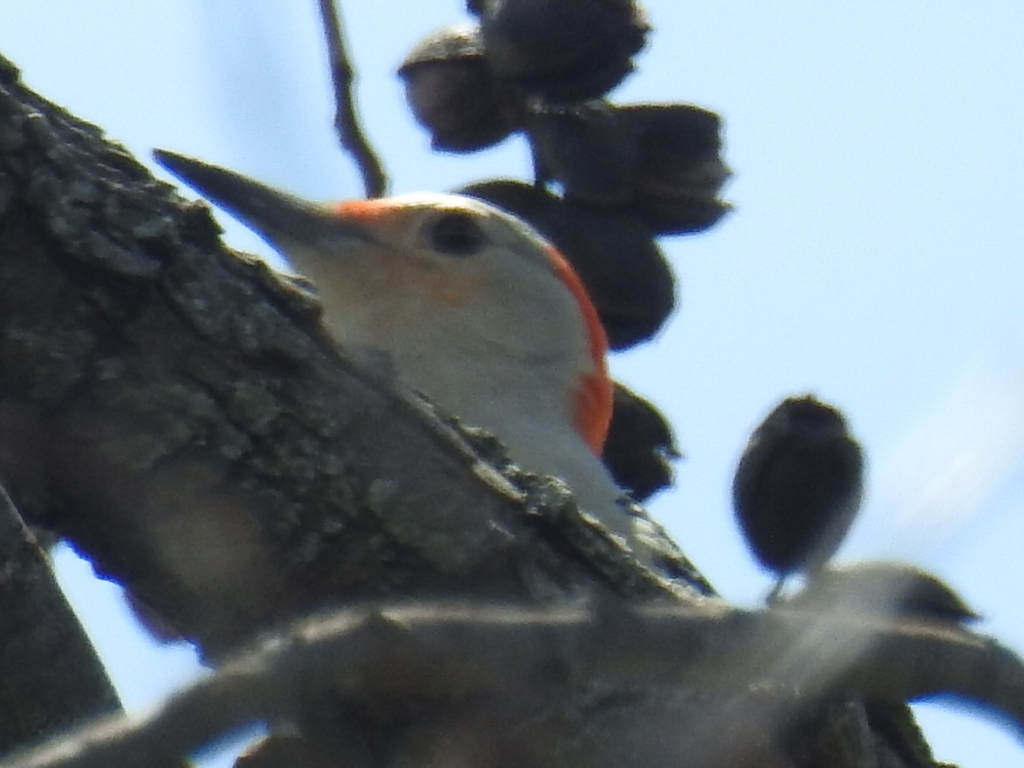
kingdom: Animalia
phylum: Chordata
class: Aves
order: Piciformes
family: Picidae
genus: Melanerpes
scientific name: Melanerpes carolinus
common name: Red-bellied woodpecker
